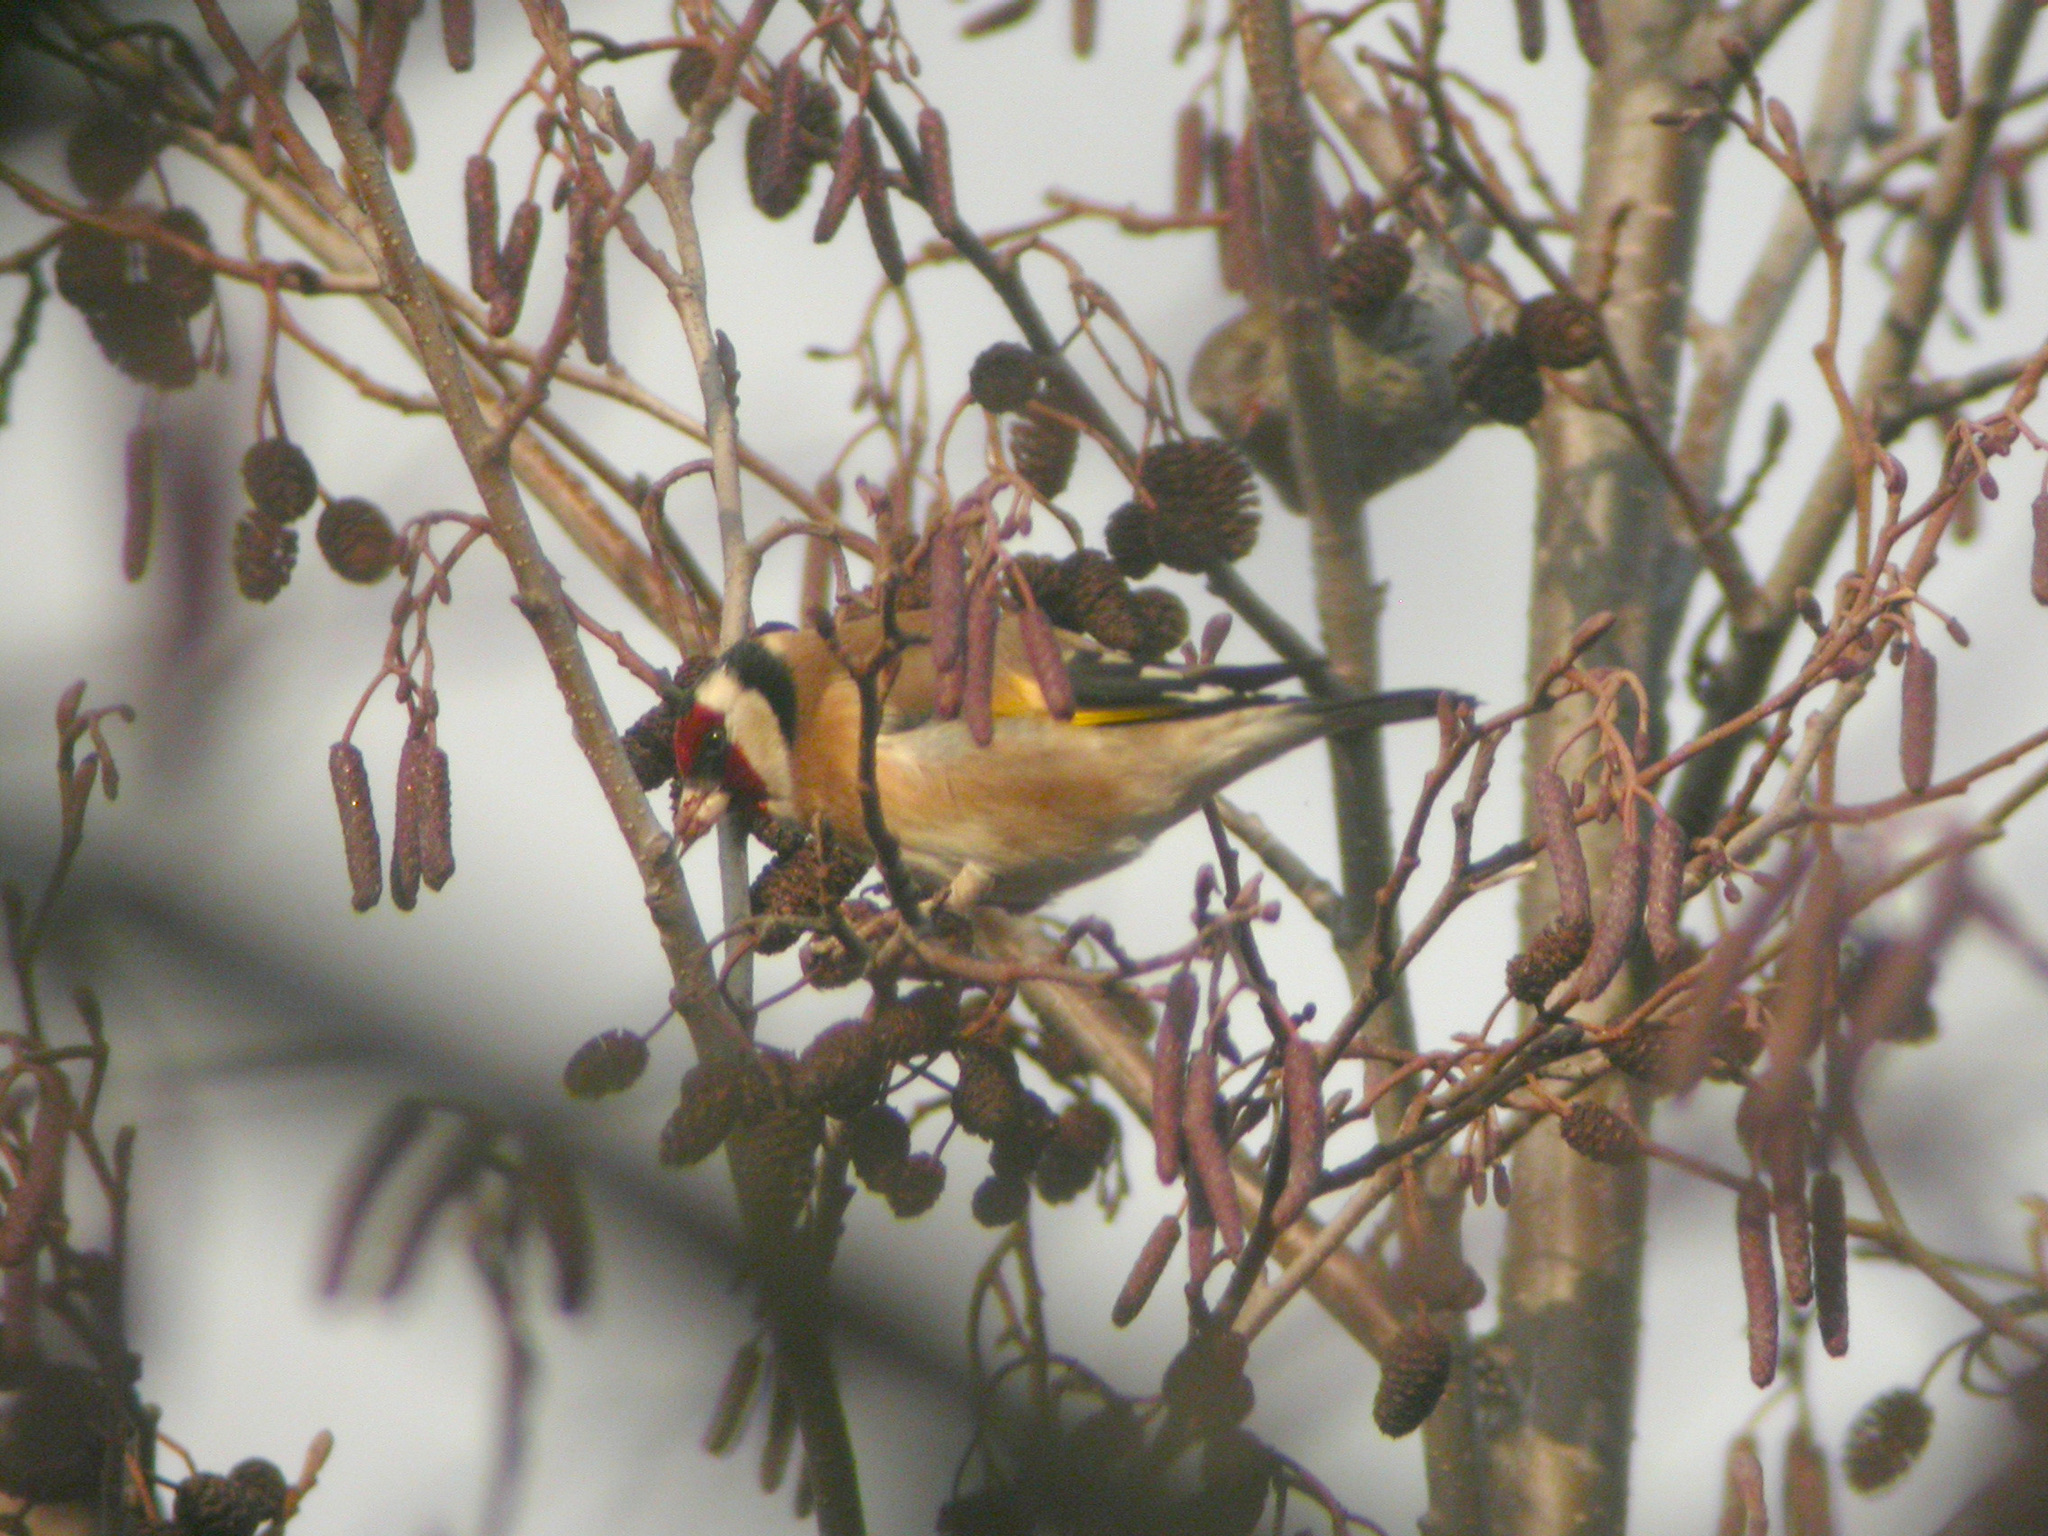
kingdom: Animalia
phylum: Chordata
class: Aves
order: Passeriformes
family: Fringillidae
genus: Carduelis
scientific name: Carduelis carduelis
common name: European goldfinch
